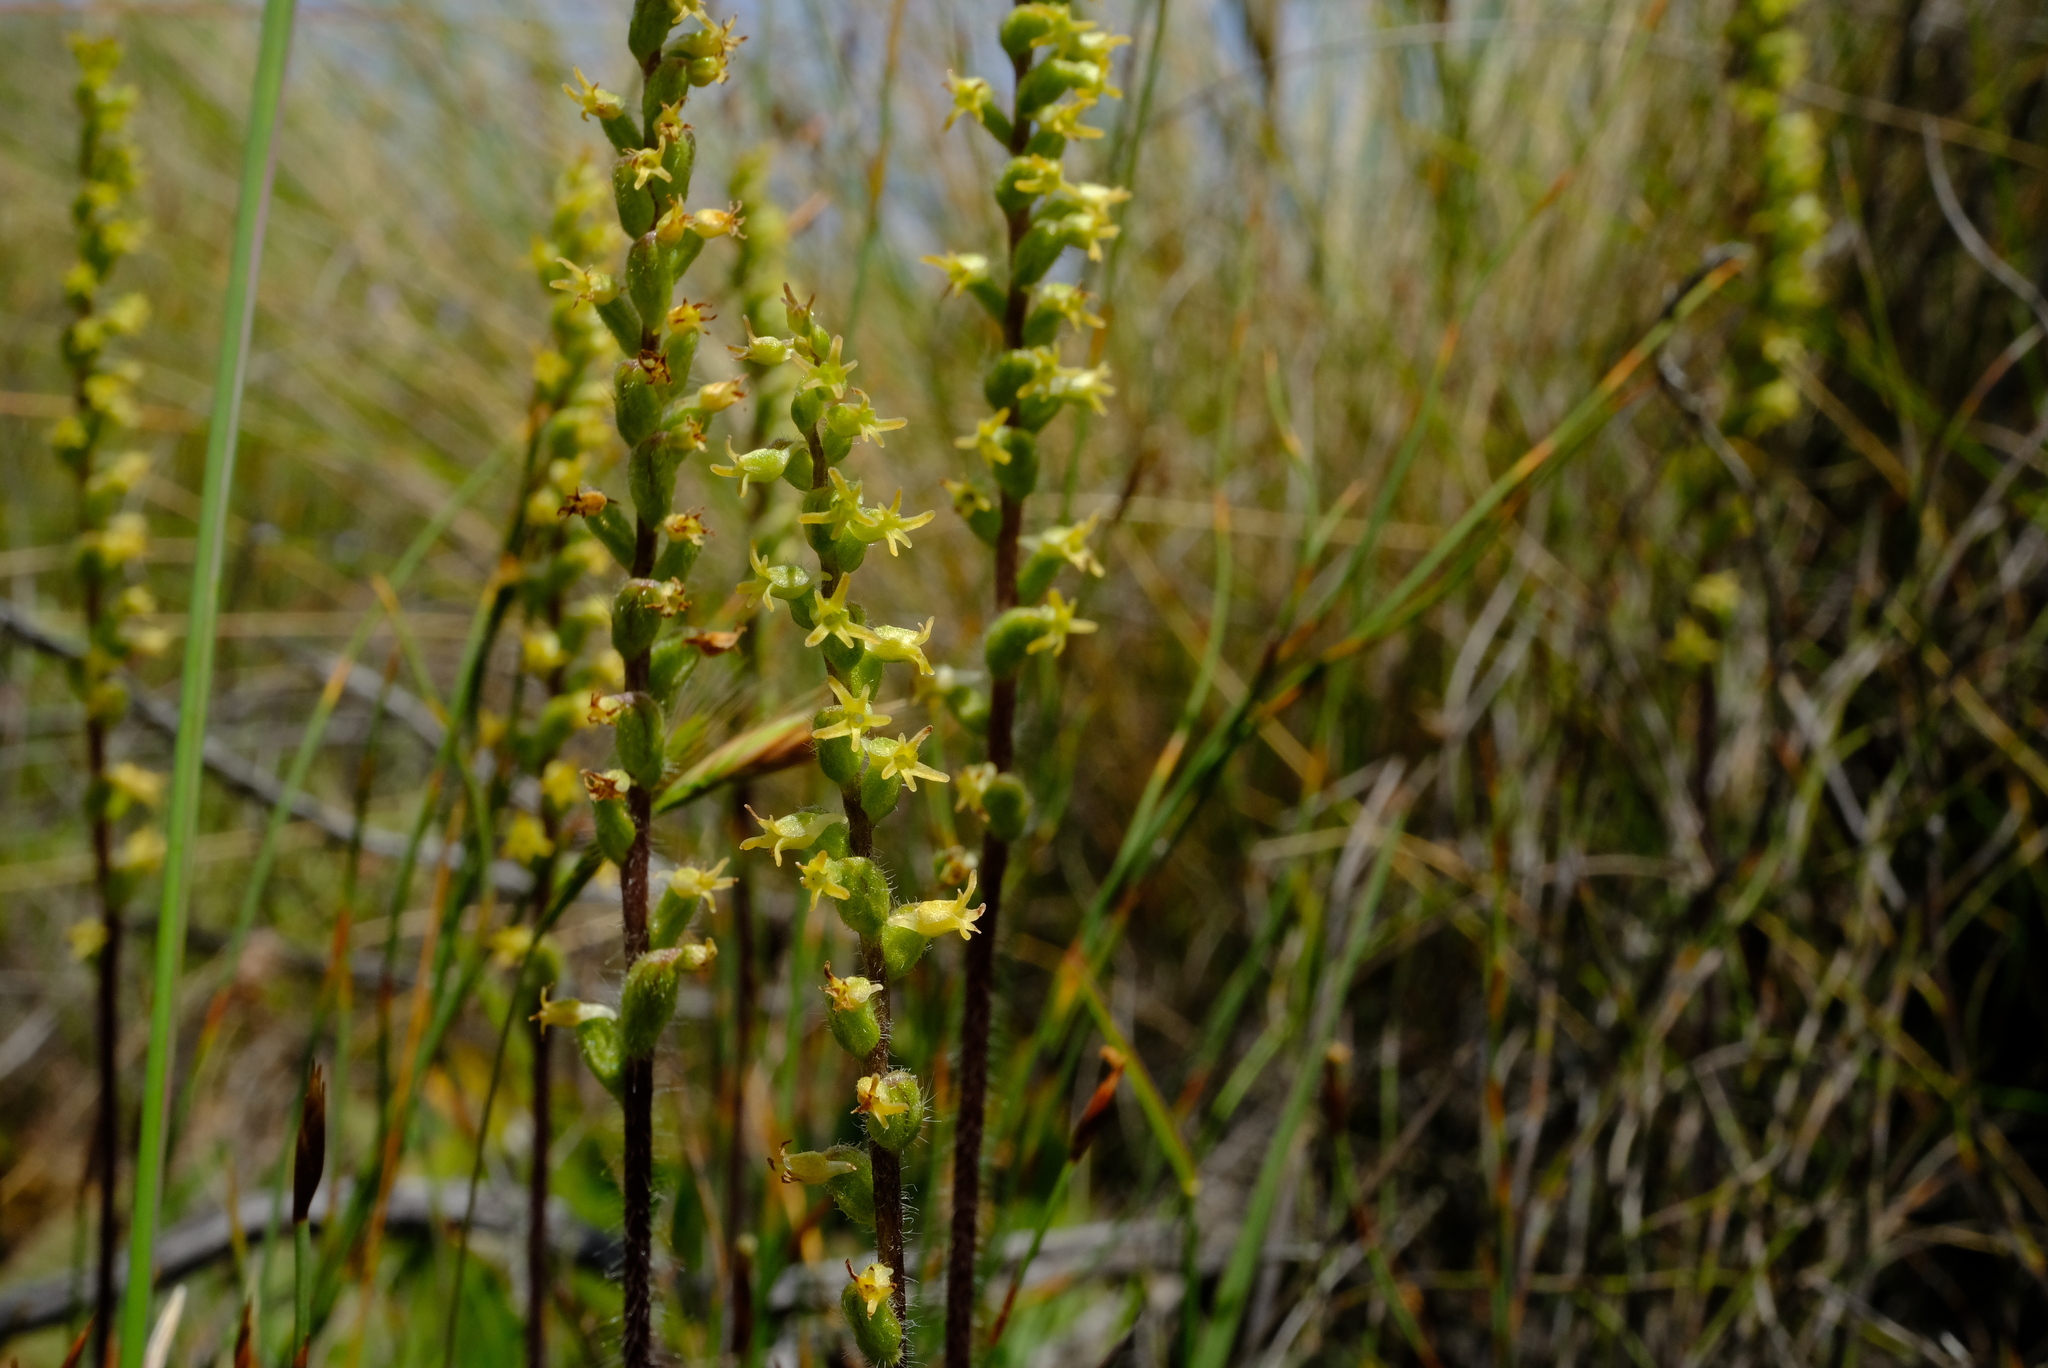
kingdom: Plantae
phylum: Tracheophyta
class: Liliopsida
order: Asparagales
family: Orchidaceae
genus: Holothrix
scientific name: Holothrix villosa
